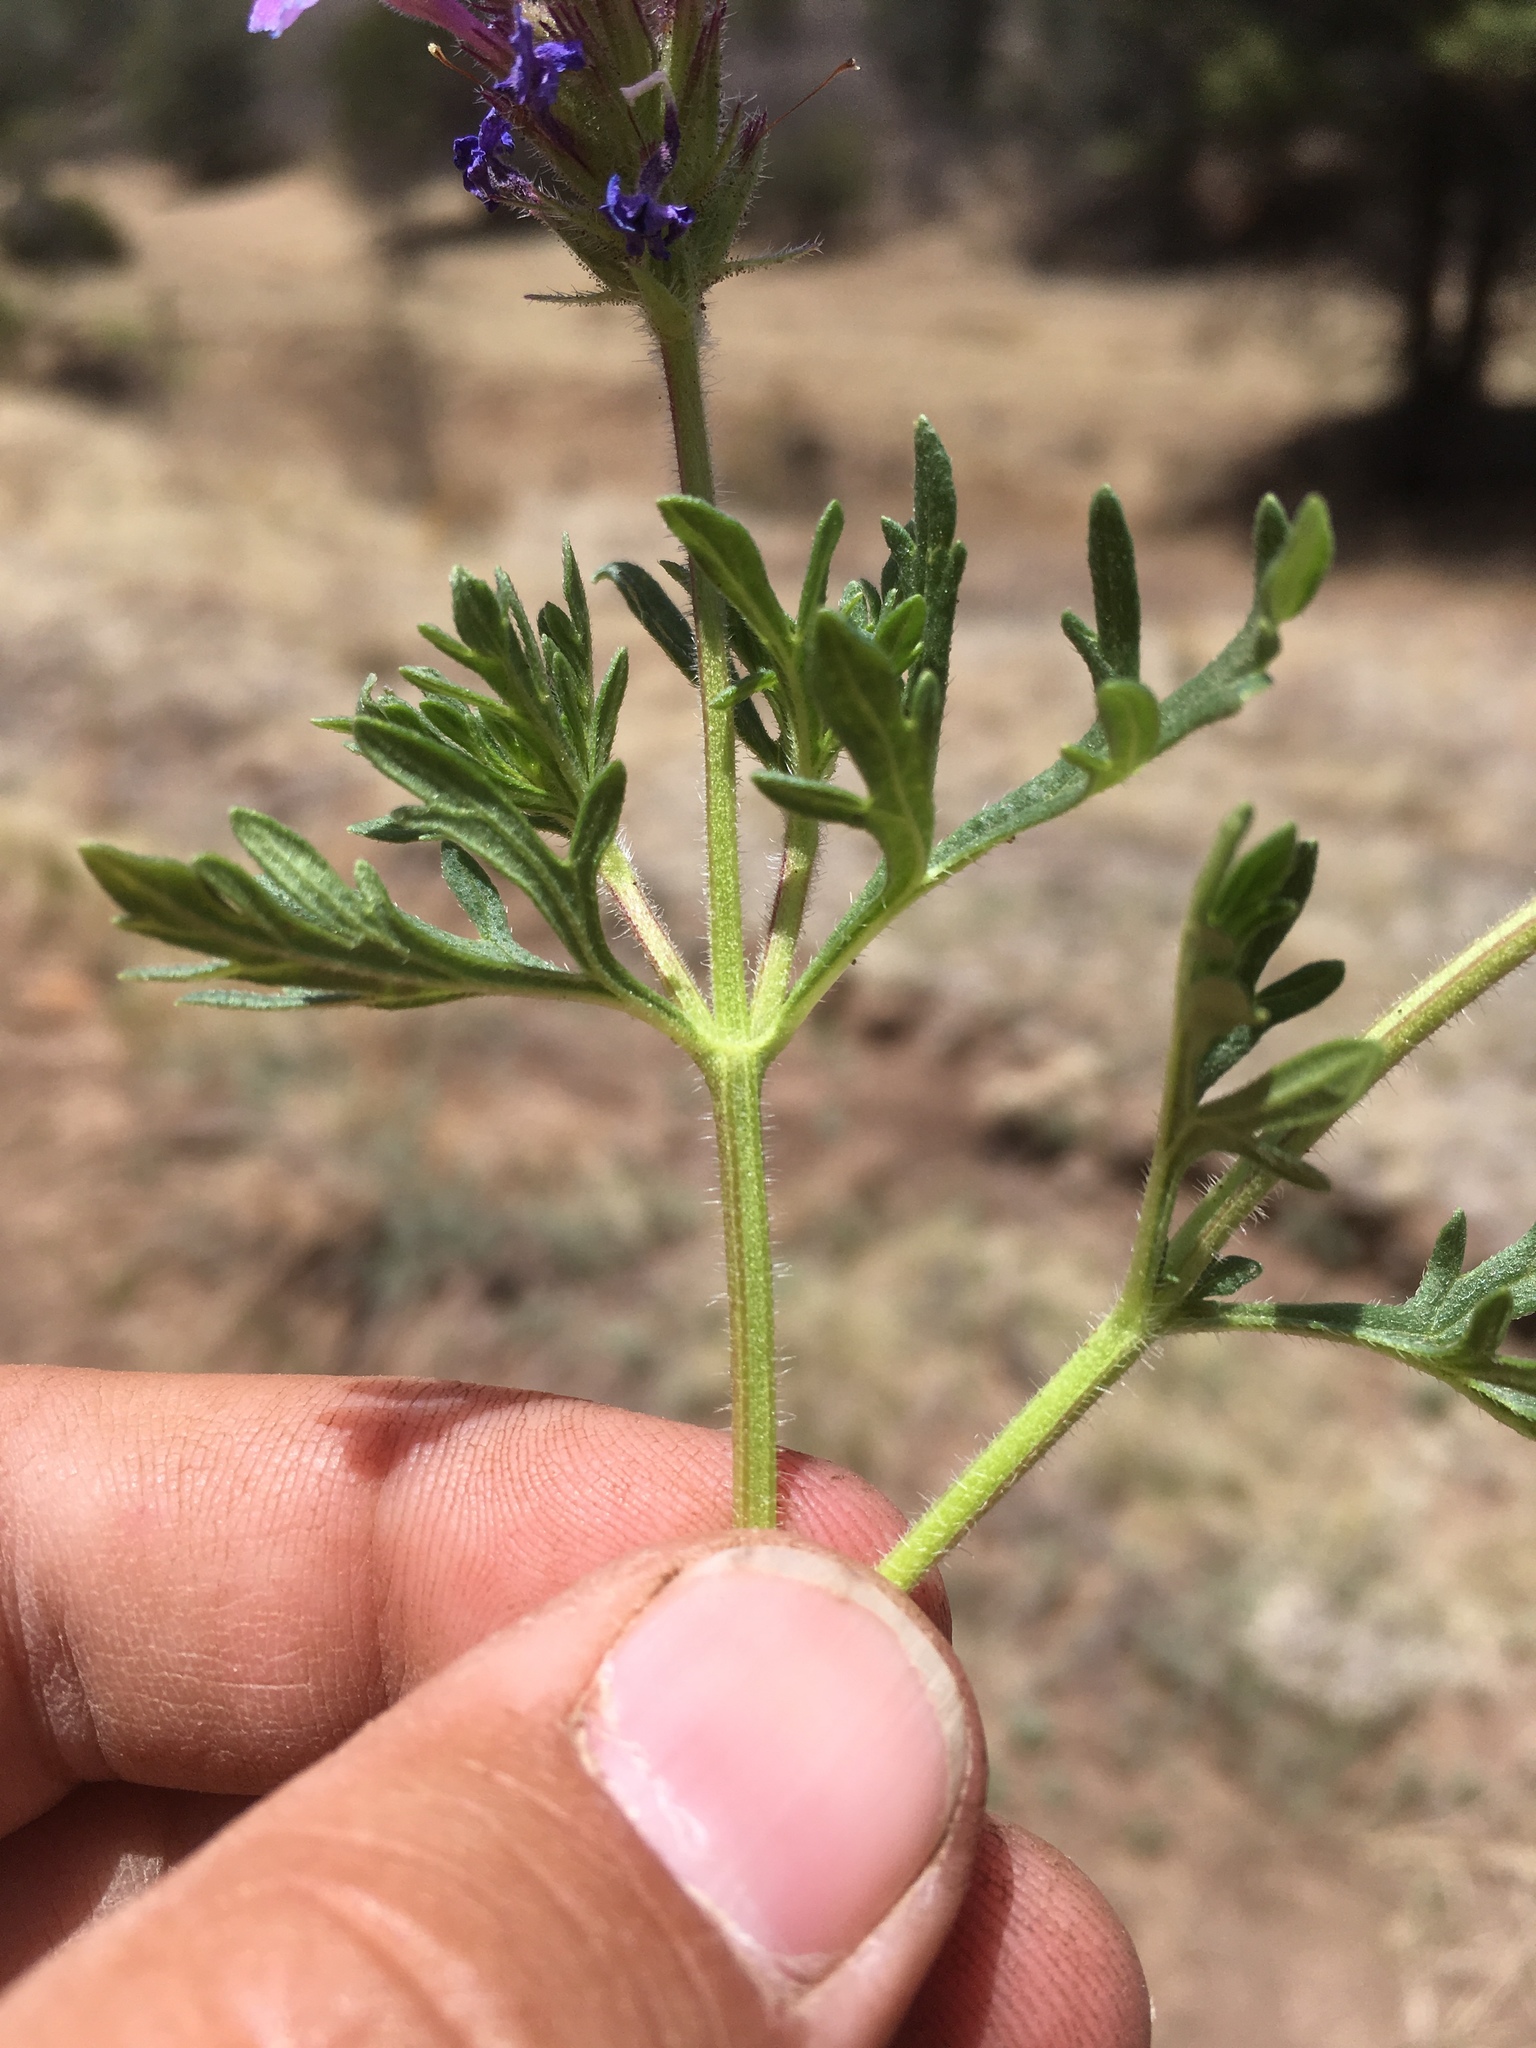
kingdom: Plantae
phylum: Tracheophyta
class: Magnoliopsida
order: Lamiales
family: Verbenaceae
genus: Verbena
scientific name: Verbena bipinnatifida
